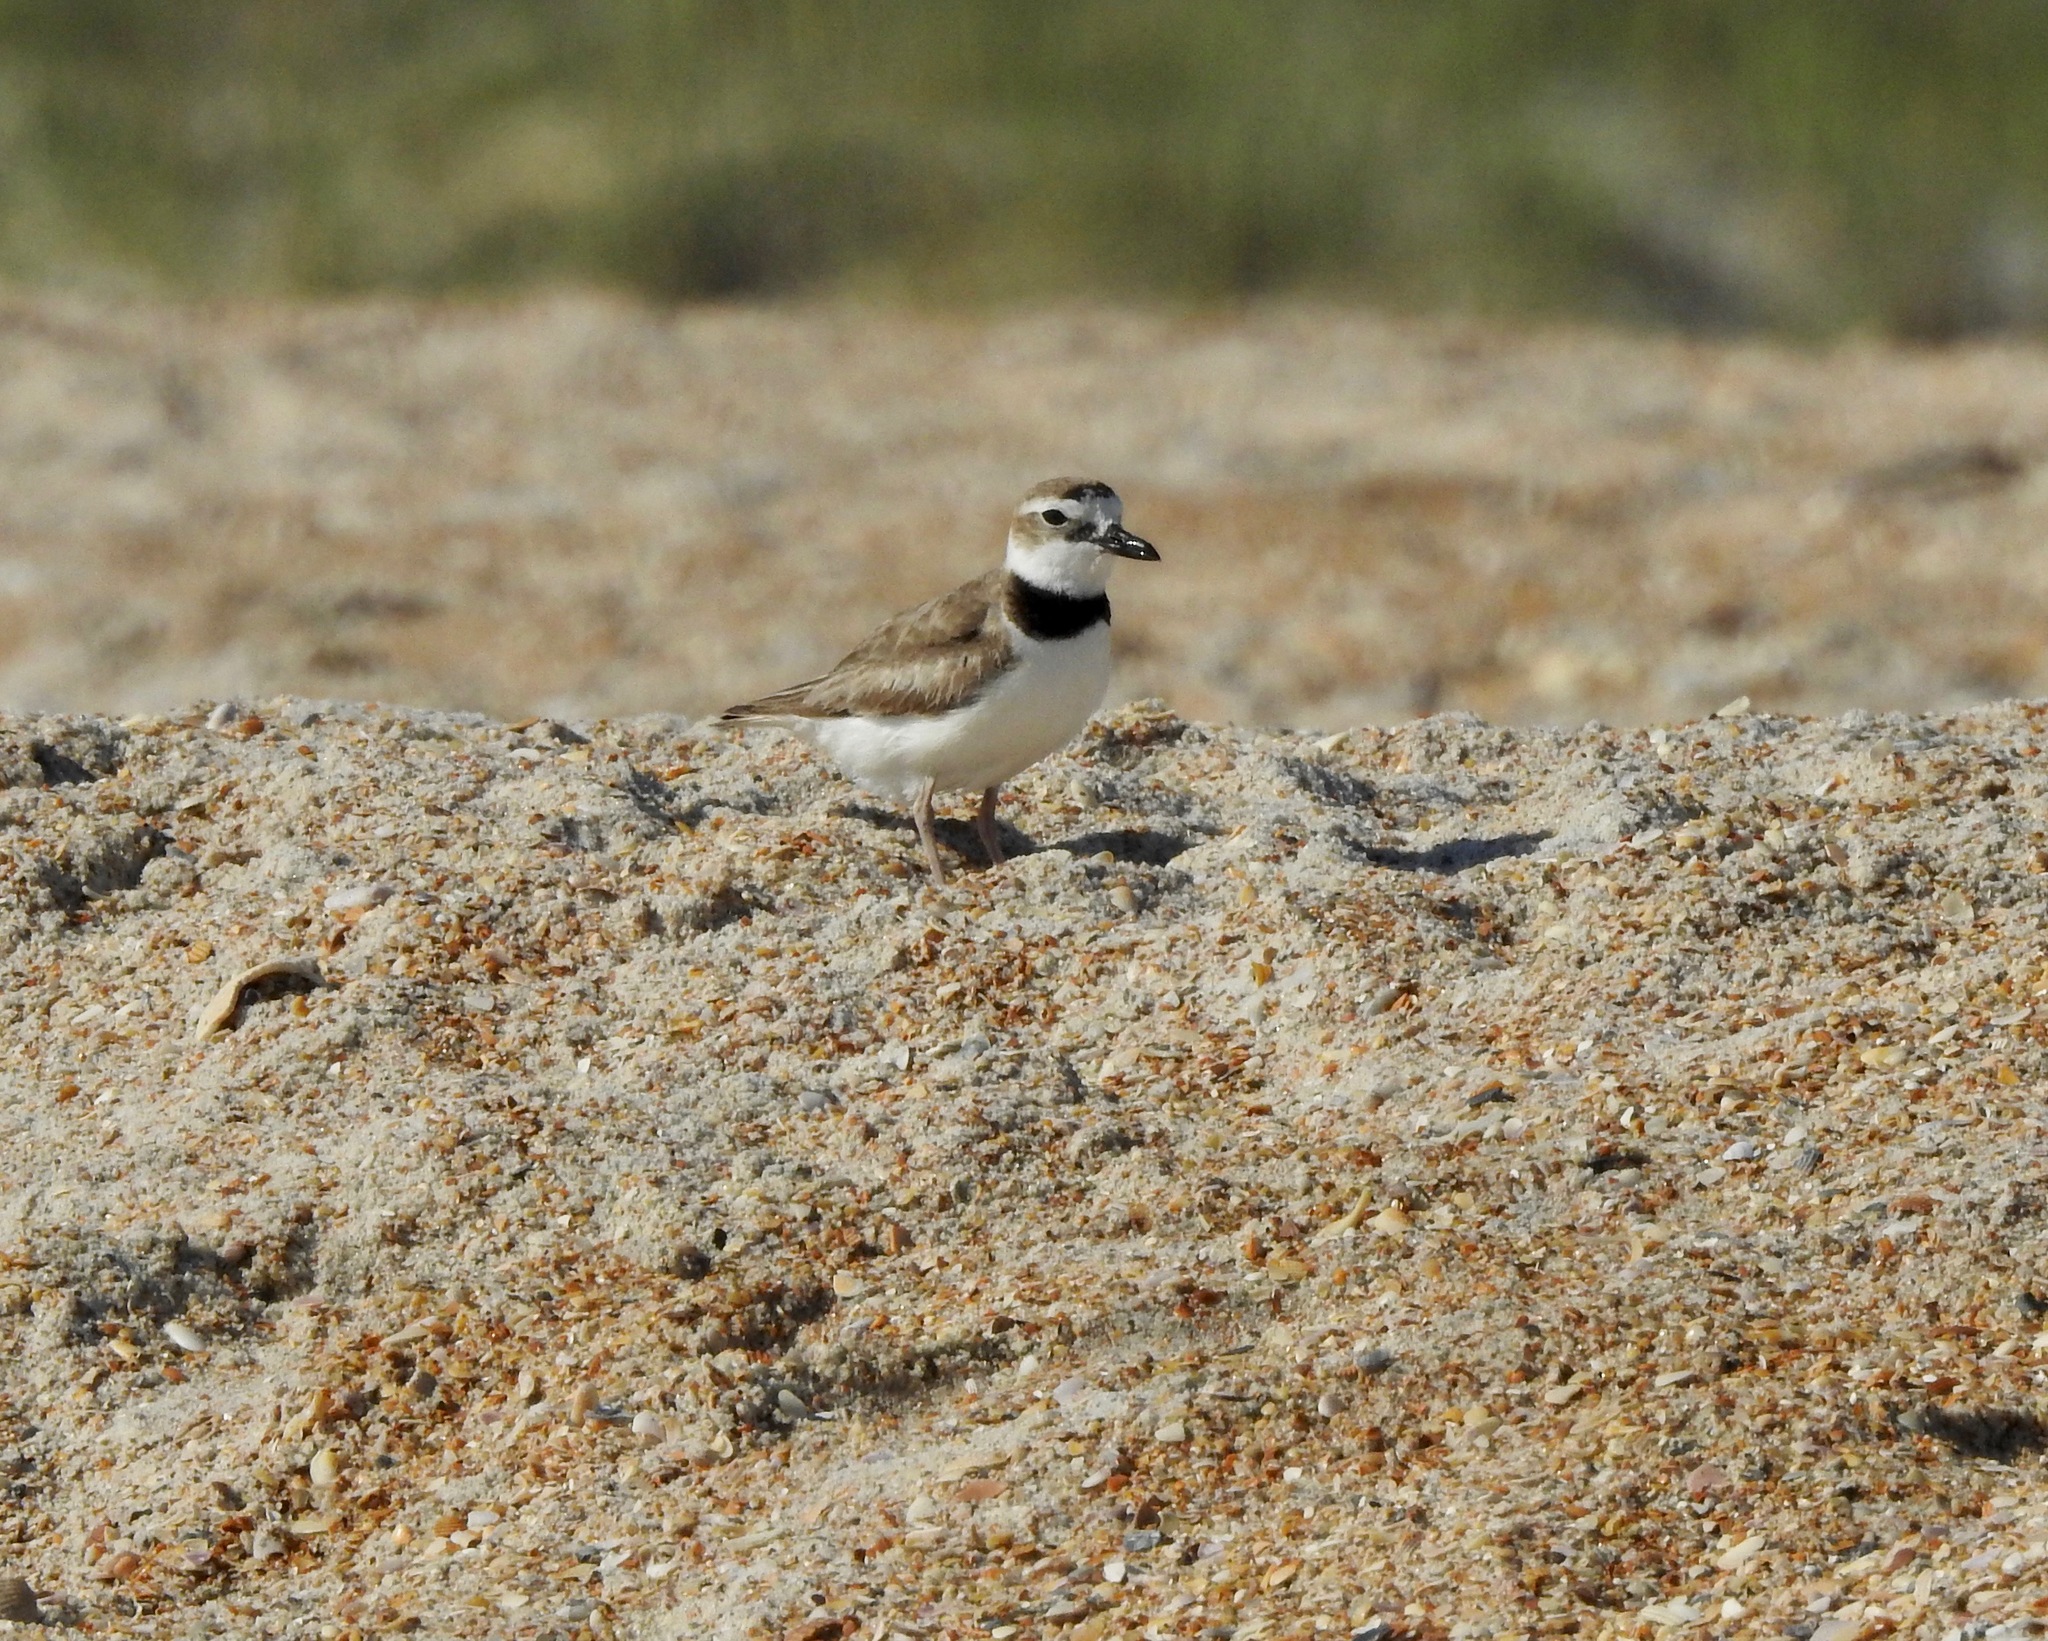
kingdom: Animalia
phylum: Chordata
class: Aves
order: Charadriiformes
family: Charadriidae
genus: Anarhynchus
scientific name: Anarhynchus
